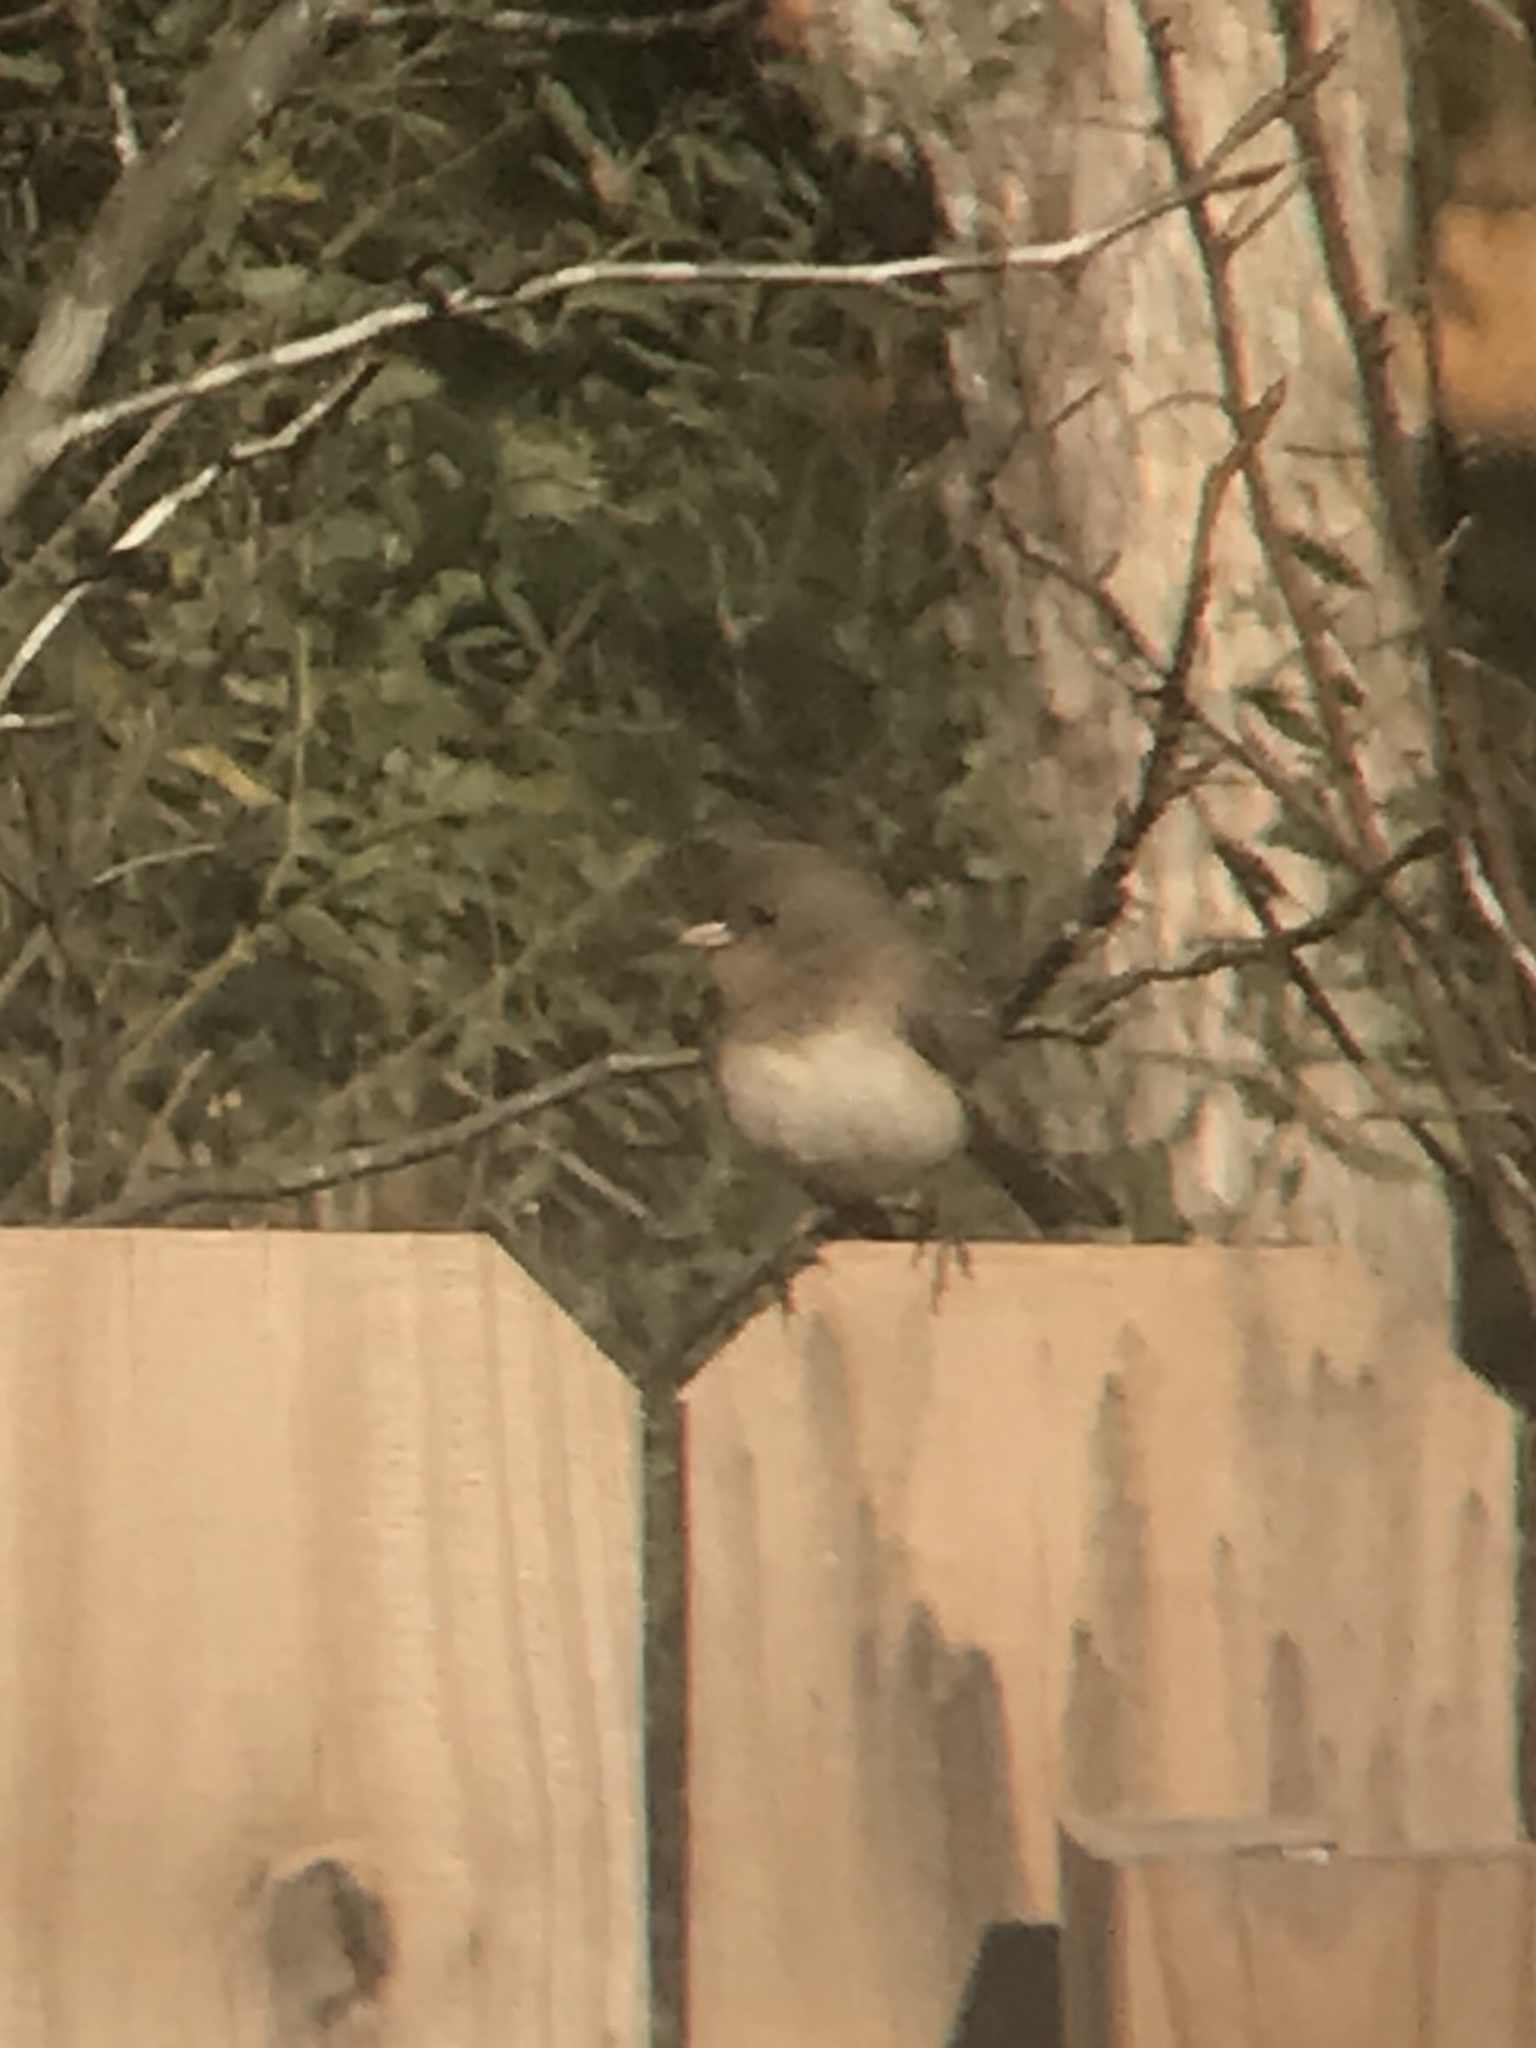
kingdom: Animalia
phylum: Chordata
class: Aves
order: Passeriformes
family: Passerellidae
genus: Junco
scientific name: Junco hyemalis
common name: Dark-eyed junco
